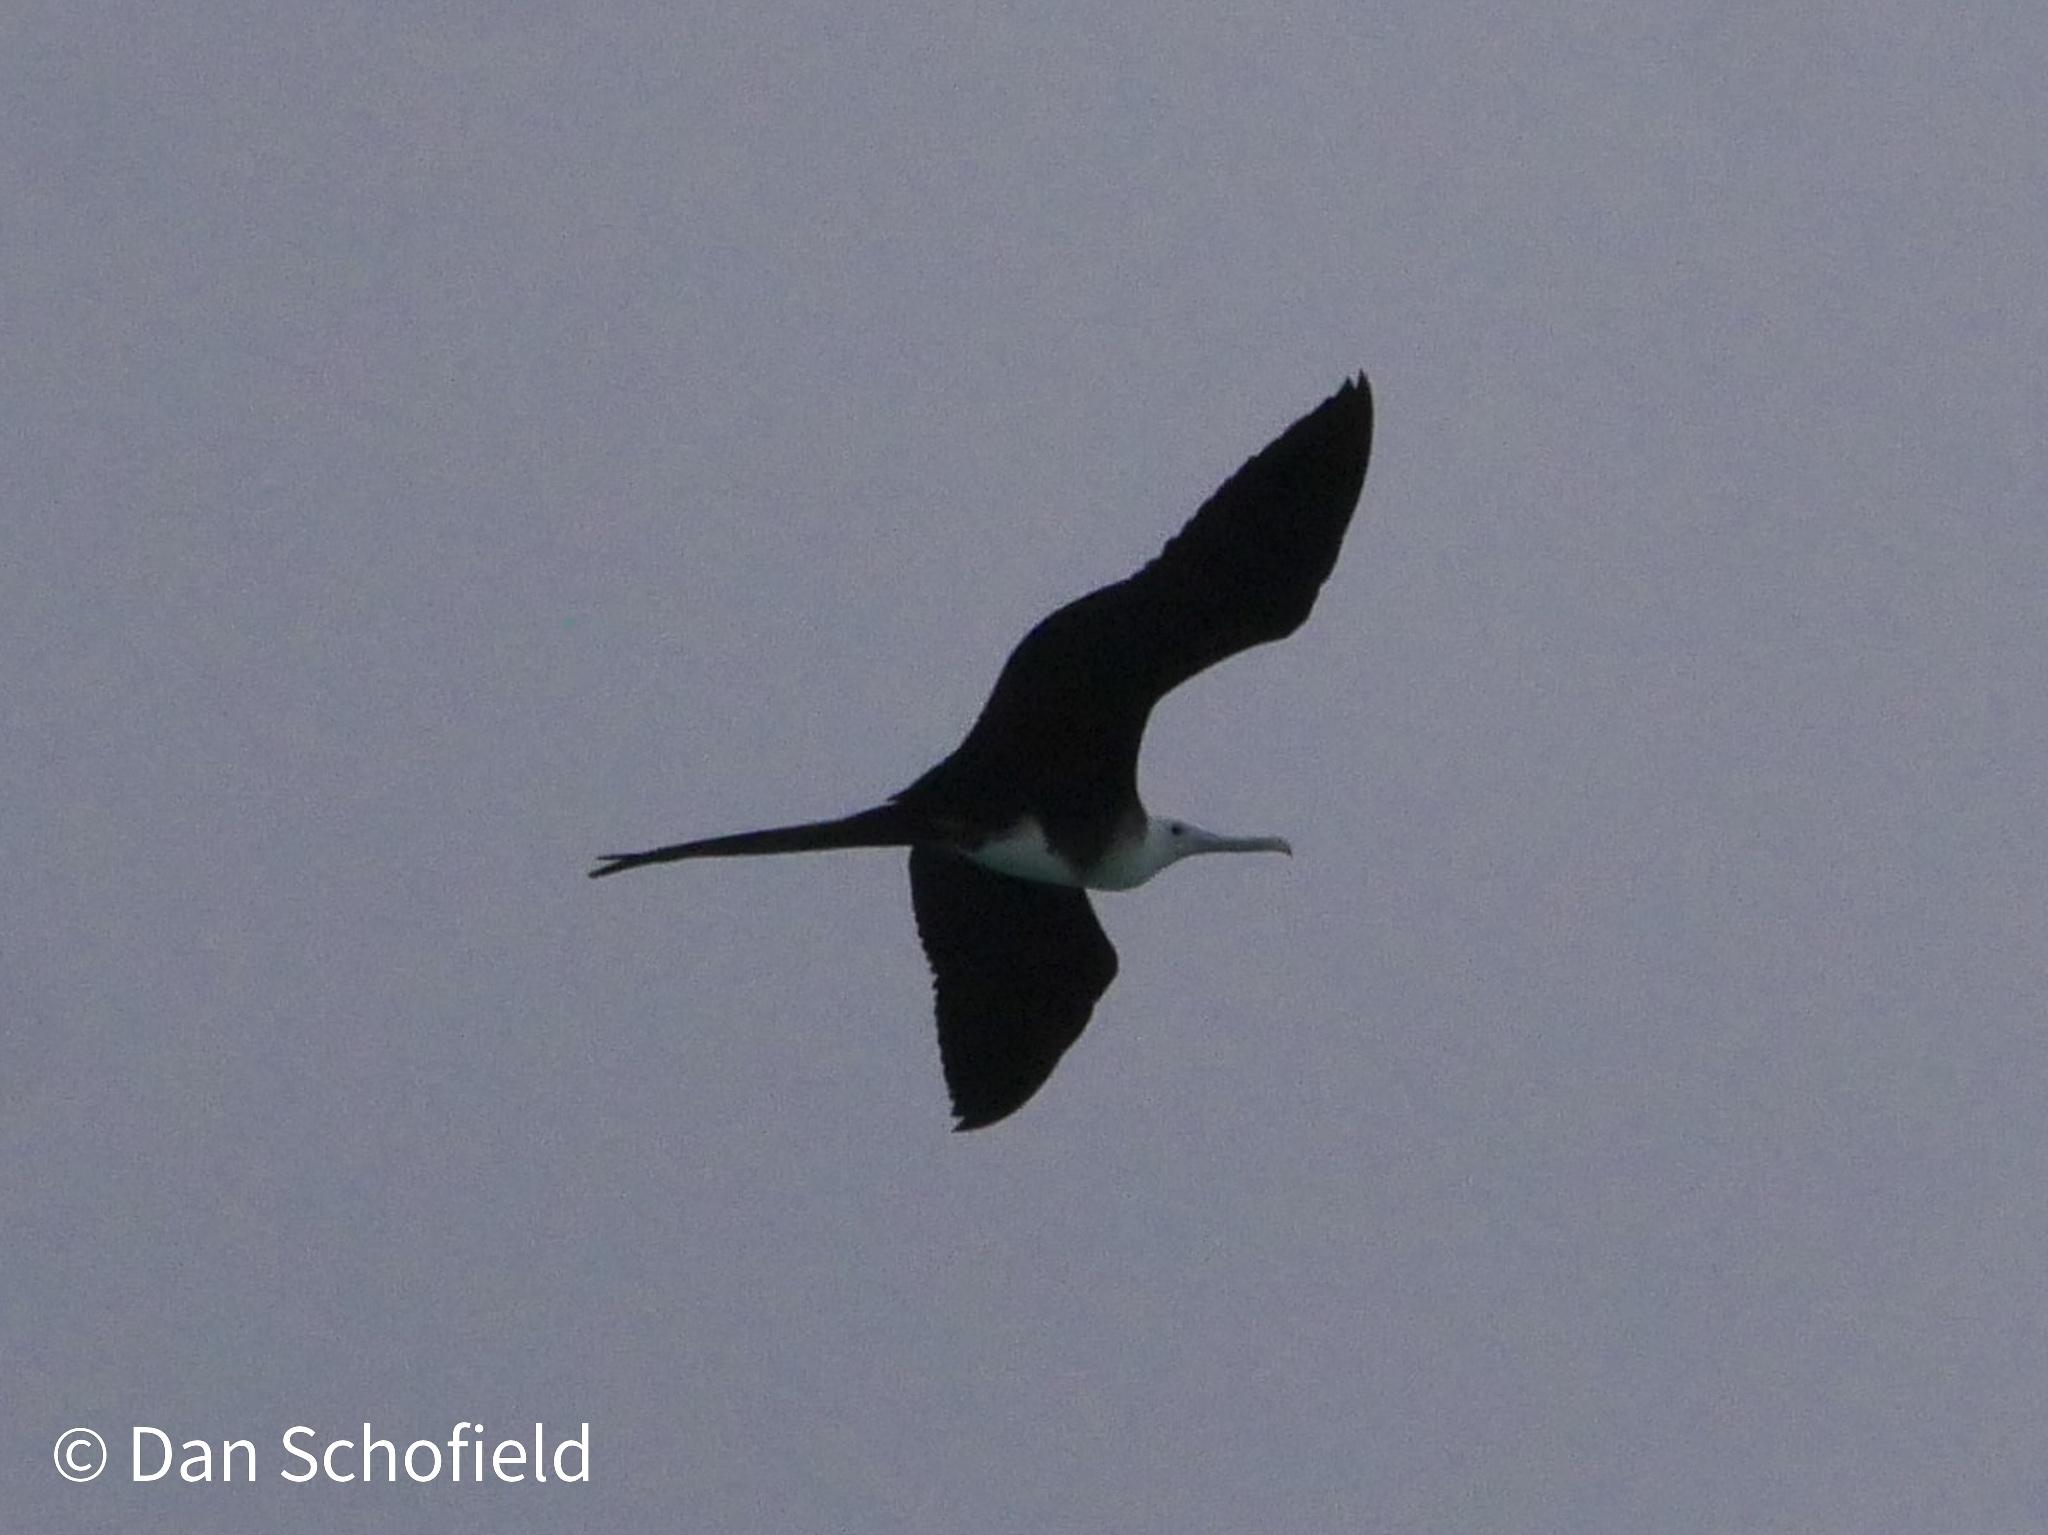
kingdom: Animalia
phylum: Chordata
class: Aves
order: Suliformes
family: Fregatidae
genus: Fregata
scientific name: Fregata magnificens
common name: Magnificent frigatebird
